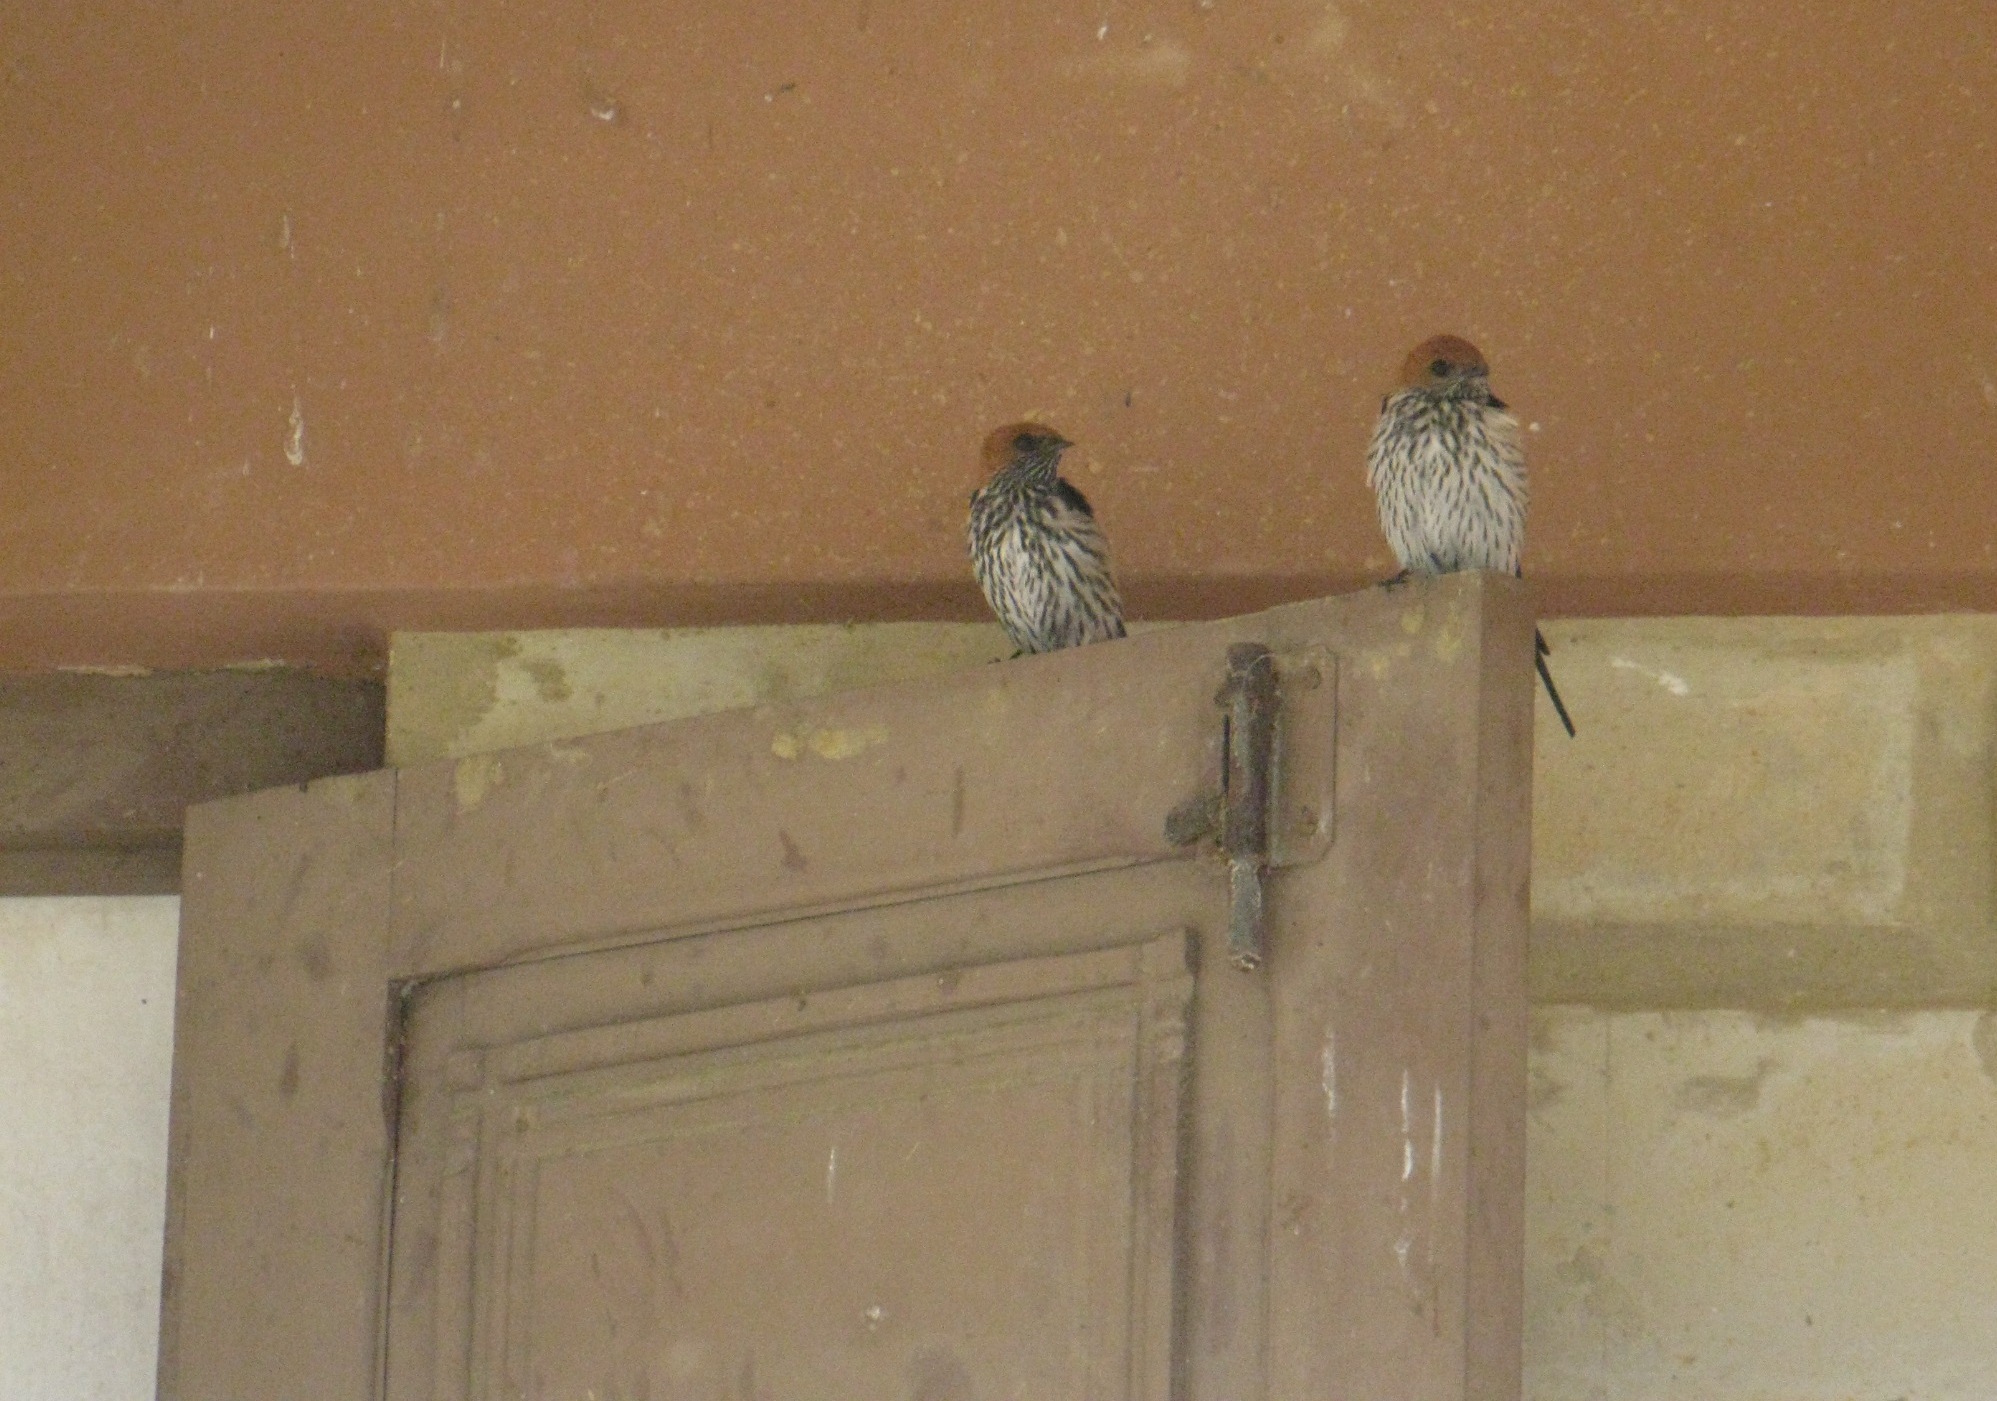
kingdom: Animalia
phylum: Chordata
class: Aves
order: Passeriformes
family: Hirundinidae
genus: Cecropis
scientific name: Cecropis abyssinica
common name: Lesser striped-swallow
